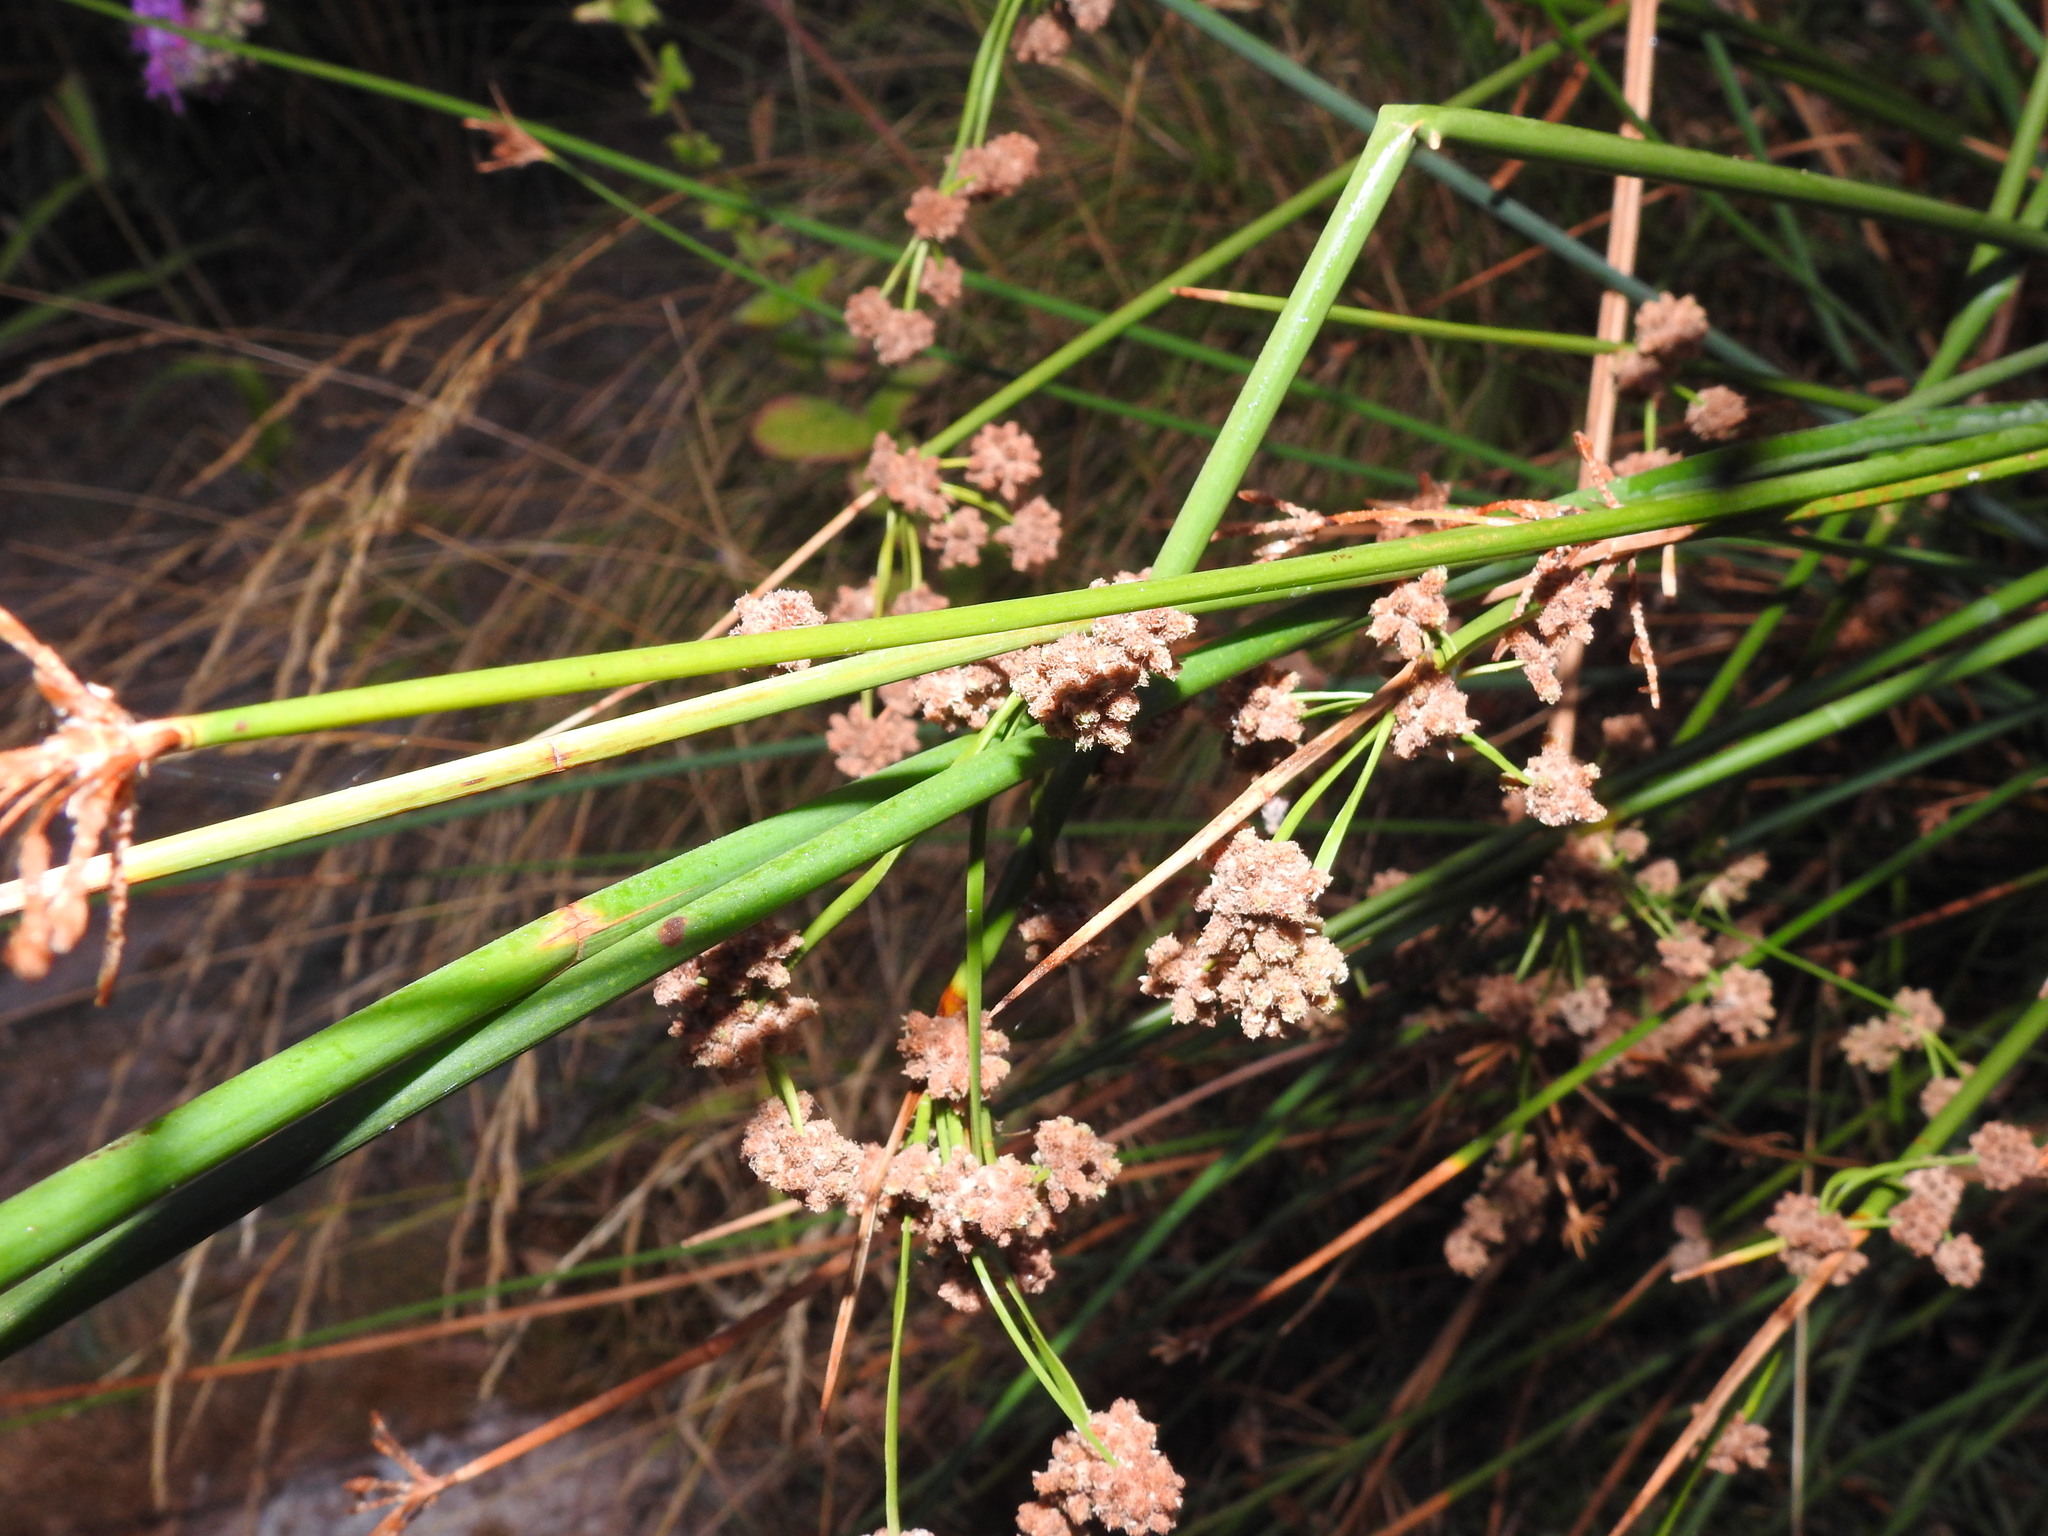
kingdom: Plantae
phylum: Tracheophyta
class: Liliopsida
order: Poales
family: Cyperaceae
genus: Scirpoides
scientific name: Scirpoides holoschoenus
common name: Round-headed club-rush
